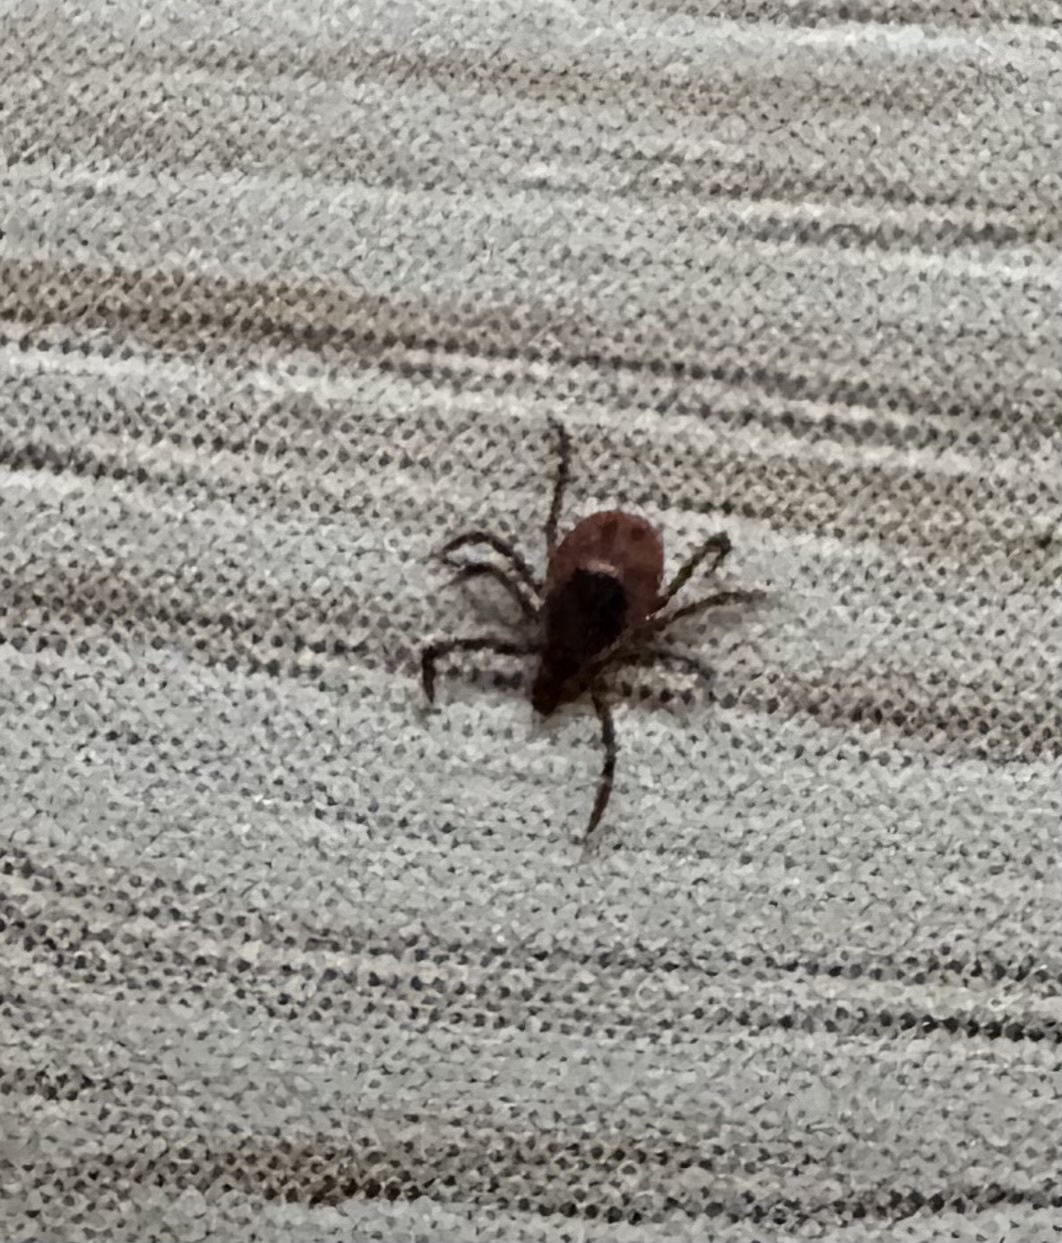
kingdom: Animalia
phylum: Arthropoda
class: Arachnida
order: Ixodida
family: Ixodidae
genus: Ixodes
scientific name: Ixodes scapularis
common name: Black legged tick
